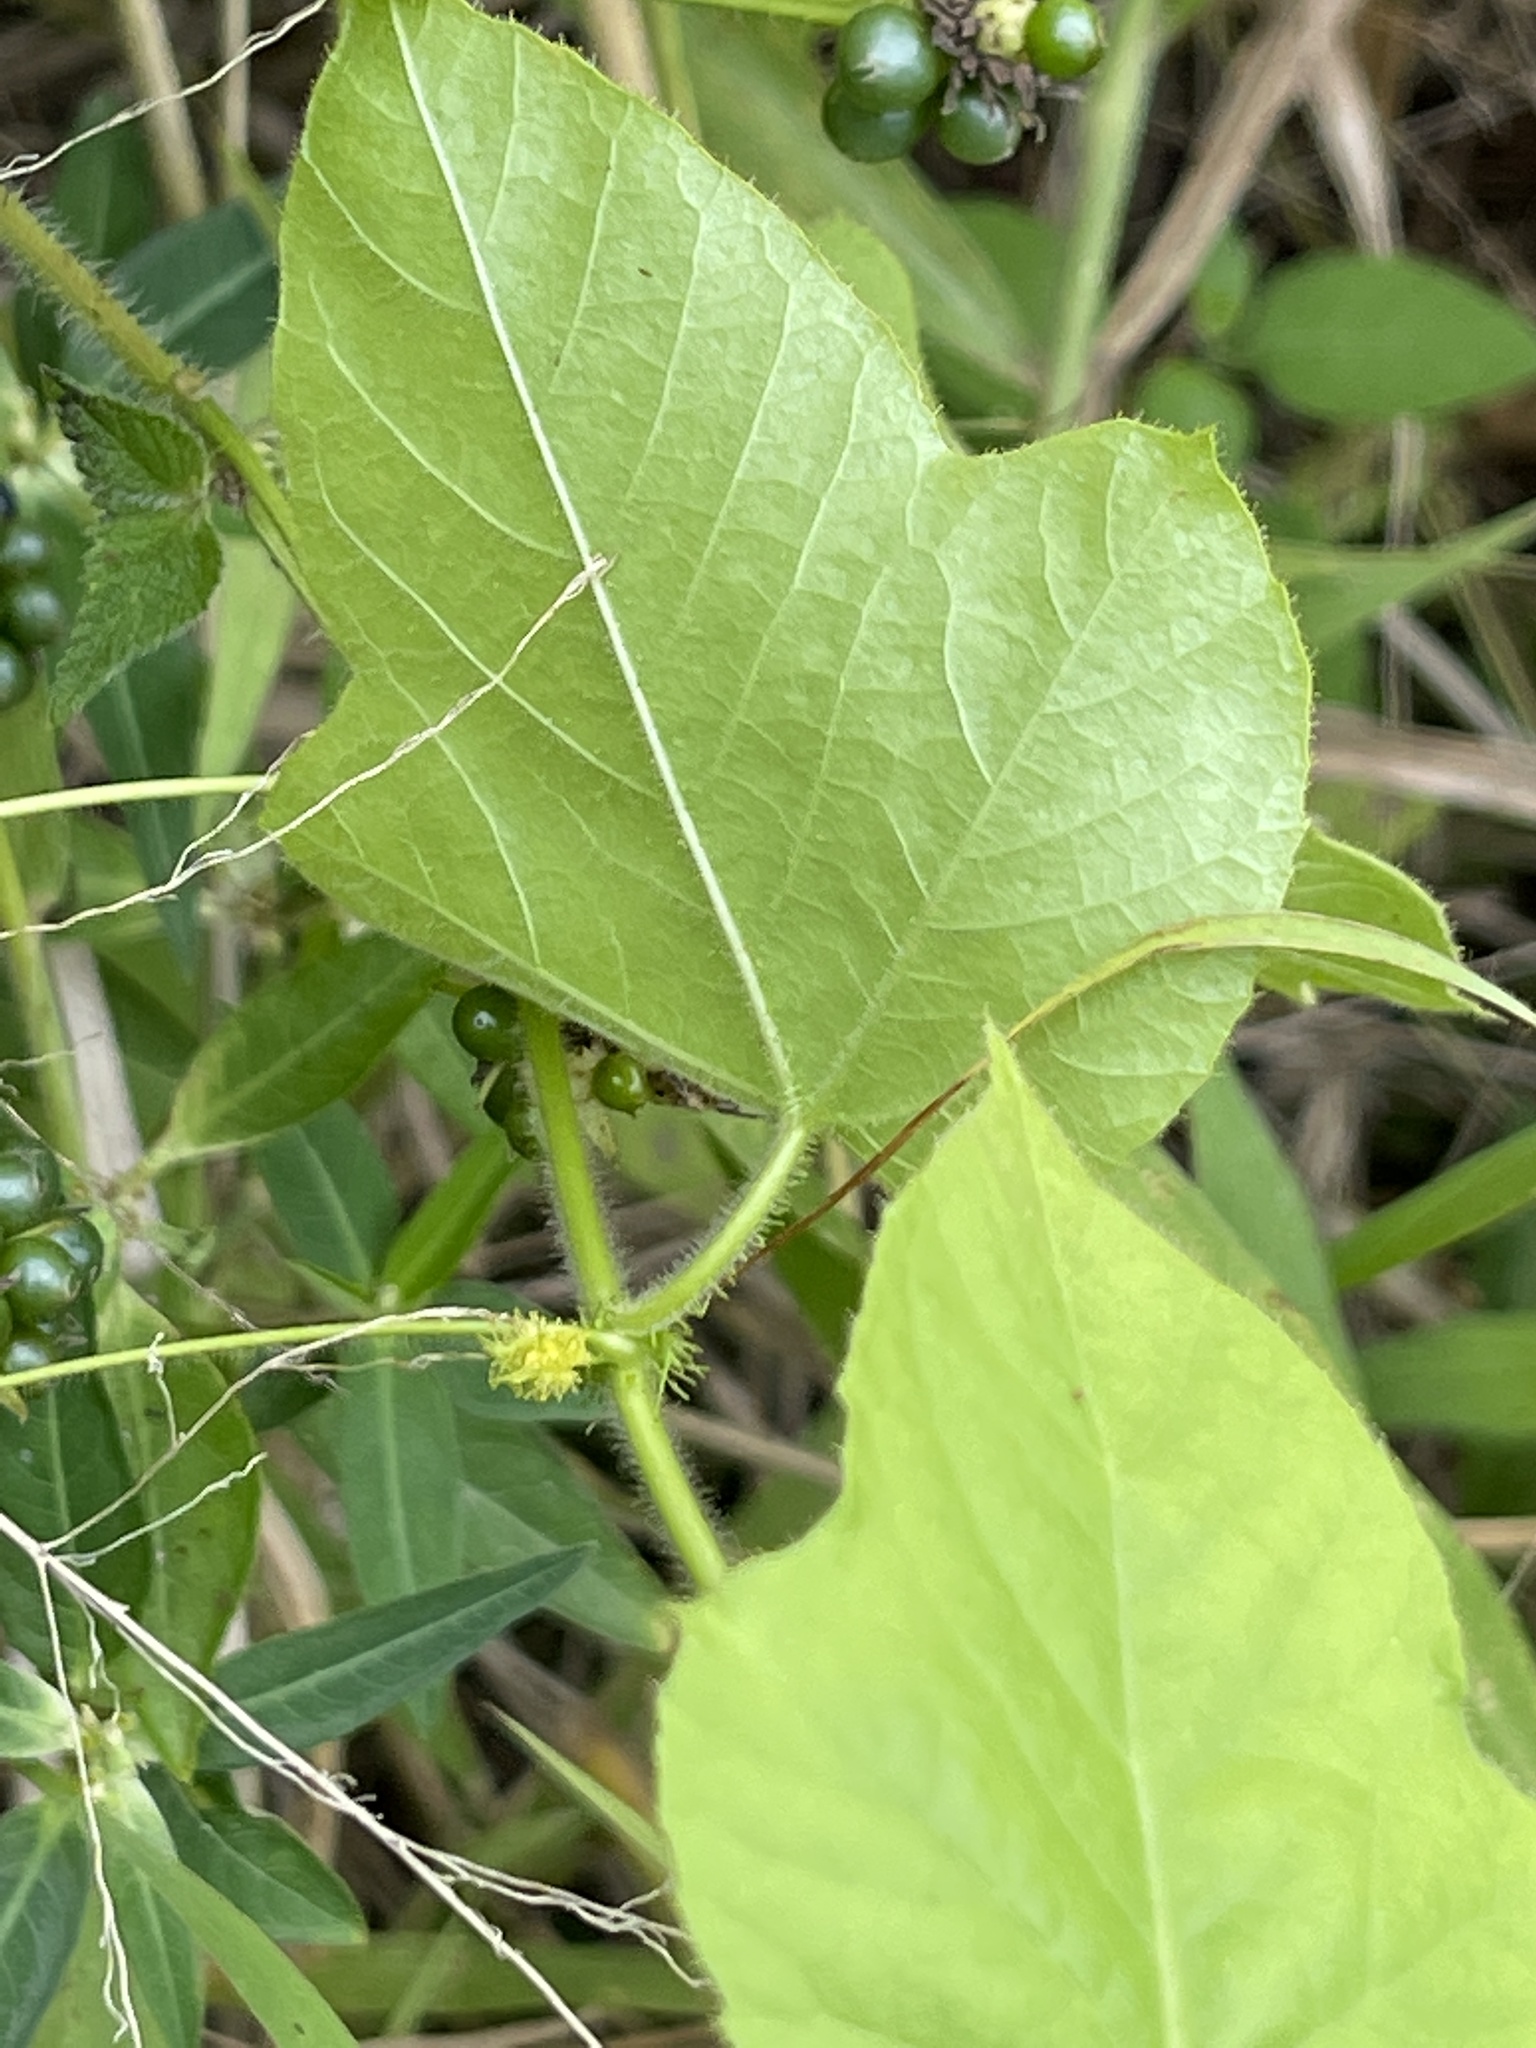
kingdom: Plantae
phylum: Tracheophyta
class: Magnoliopsida
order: Malpighiales
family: Passifloraceae
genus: Passiflora
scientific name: Passiflora foetida
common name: Fetid passionflower
